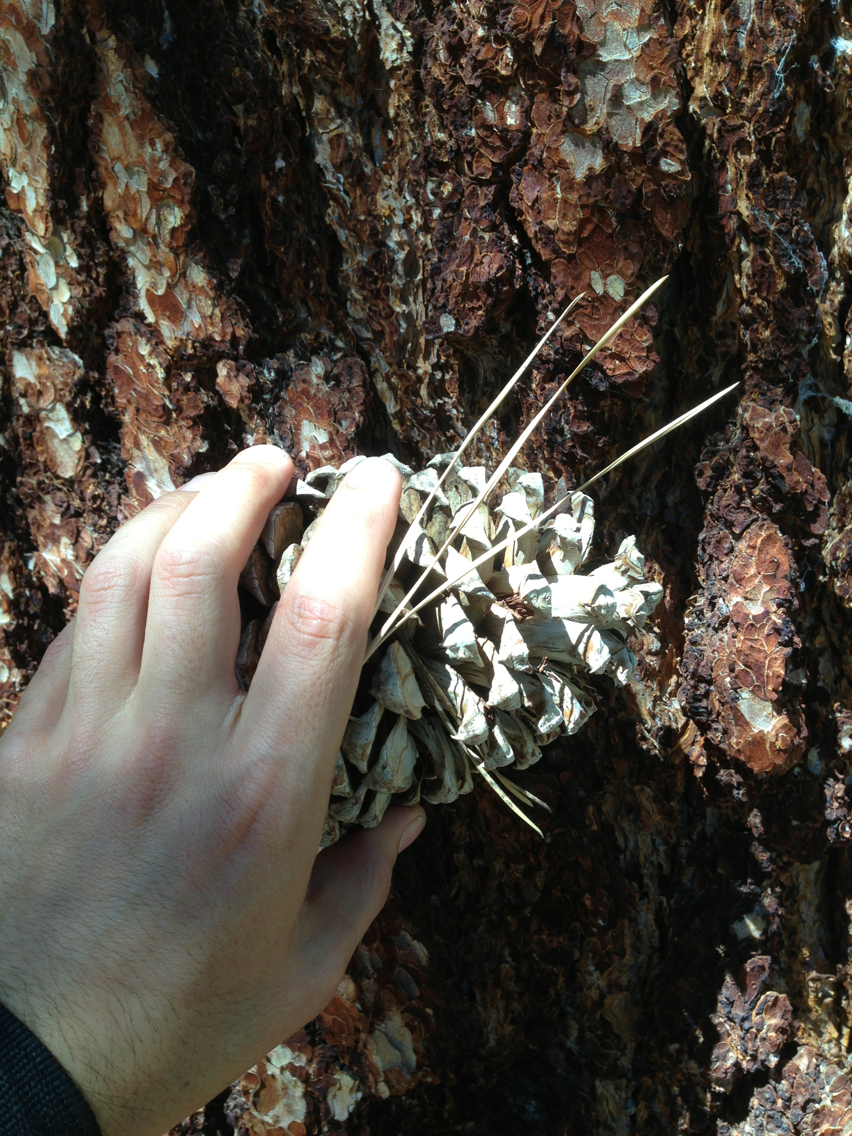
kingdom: Plantae
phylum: Tracheophyta
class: Pinopsida
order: Pinales
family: Pinaceae
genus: Pinus
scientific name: Pinus jeffreyi
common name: Jeffrey pine
